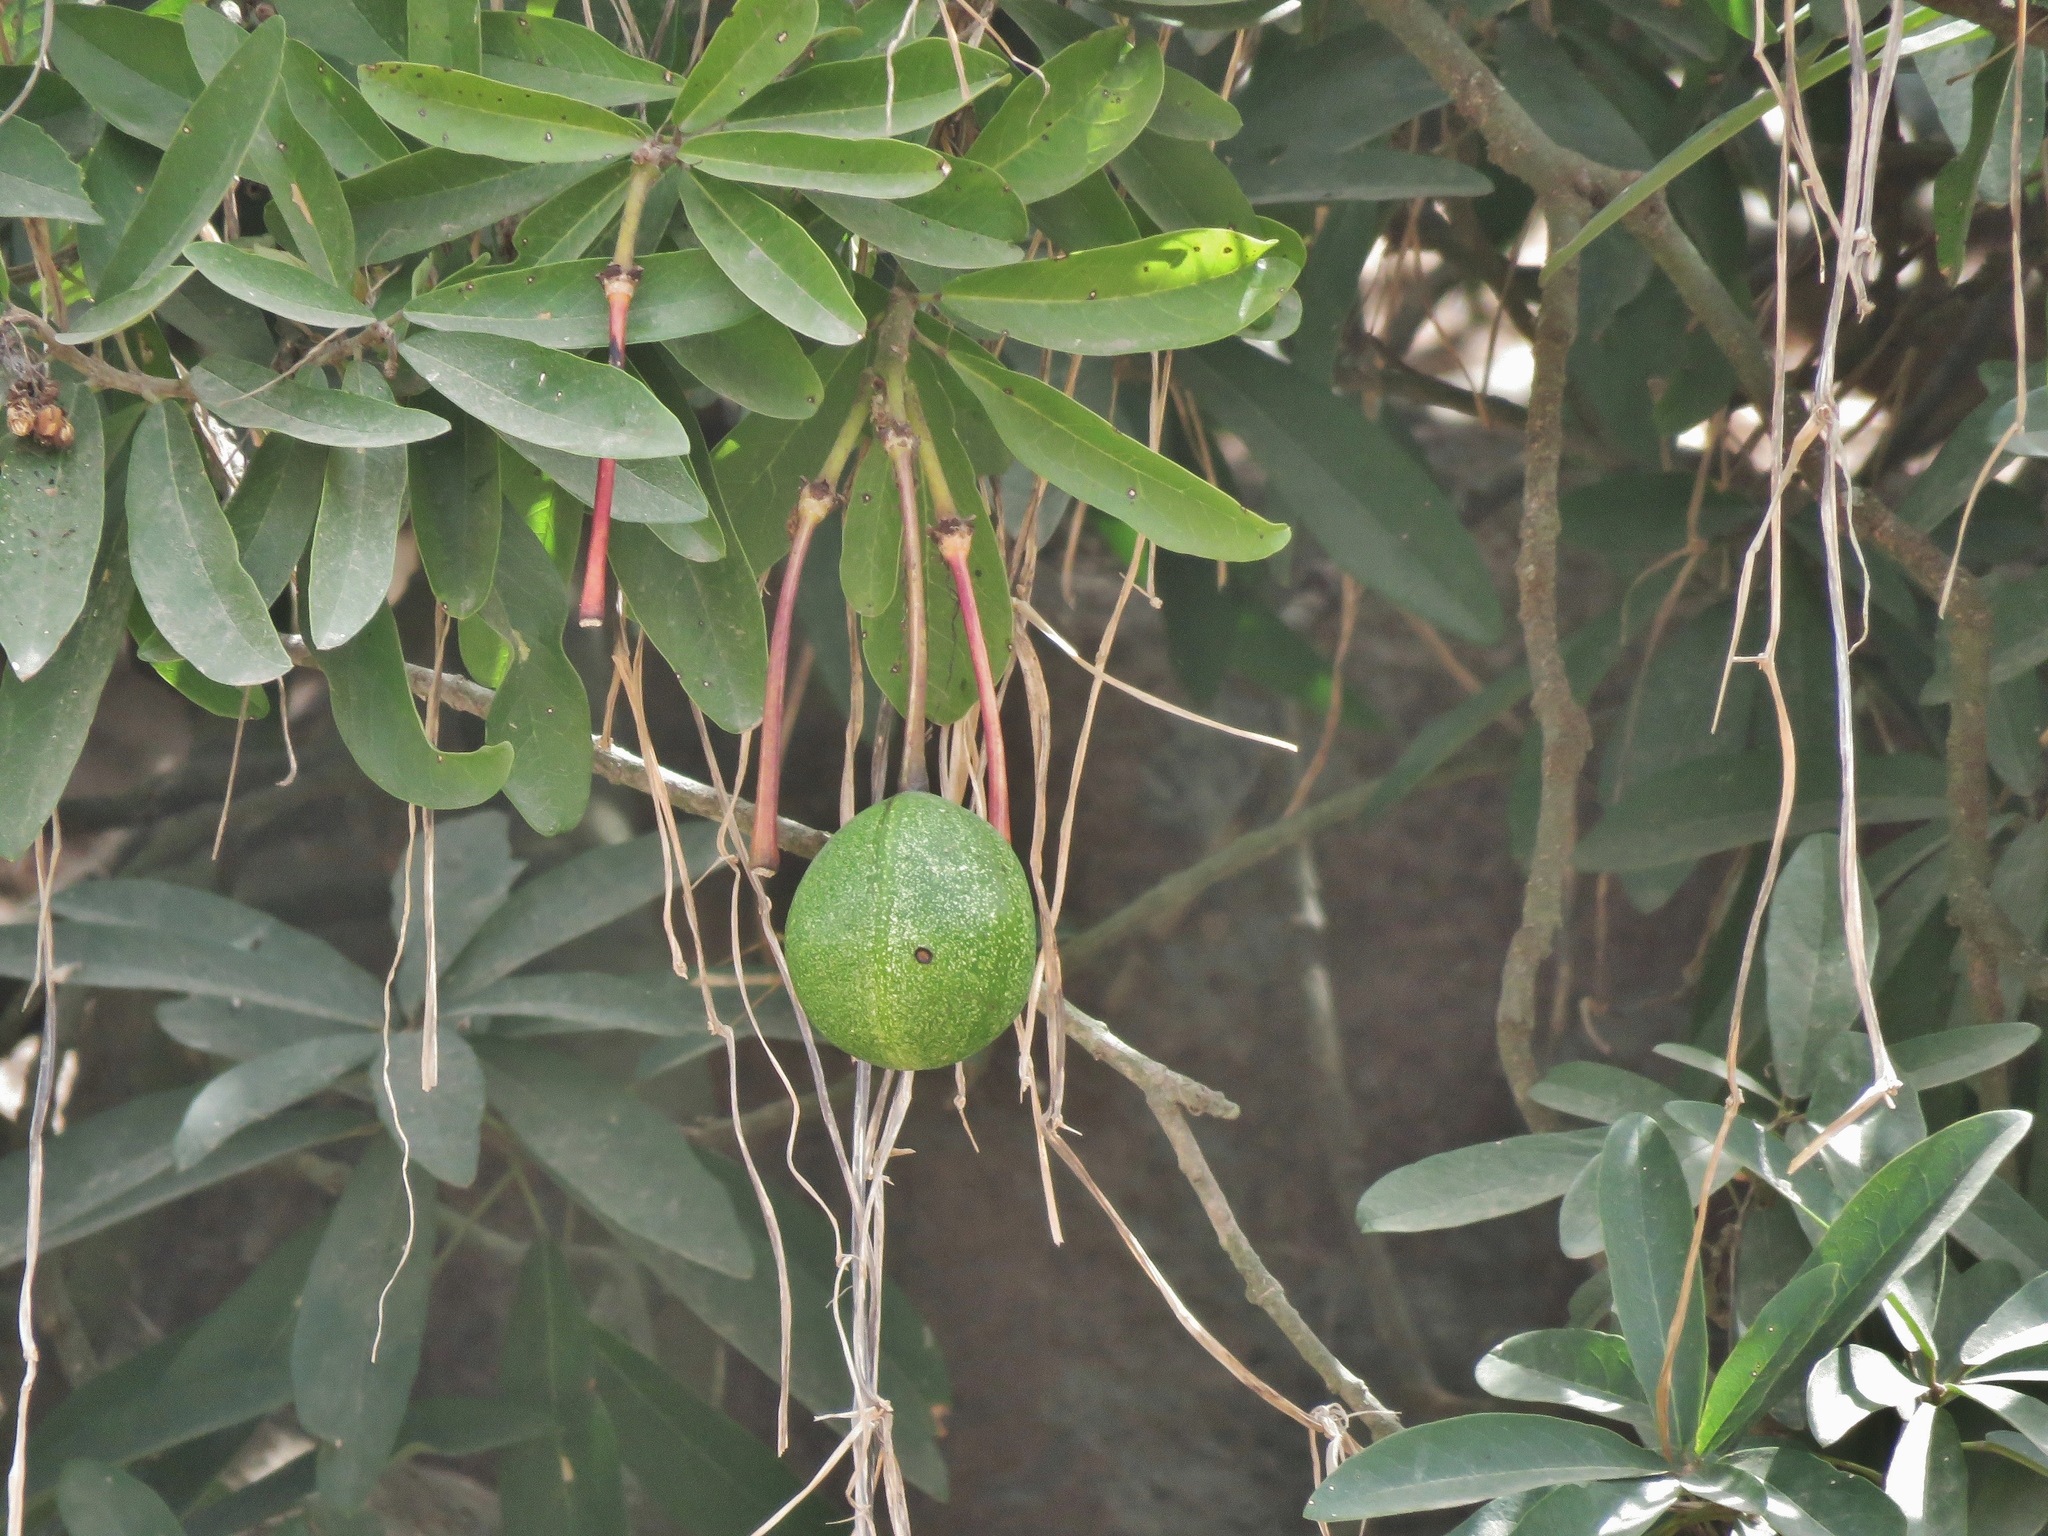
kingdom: Plantae
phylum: Tracheophyta
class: Magnoliopsida
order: Brassicales
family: Capparaceae
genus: Capparidastrum
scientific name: Capparidastrum petiolare
